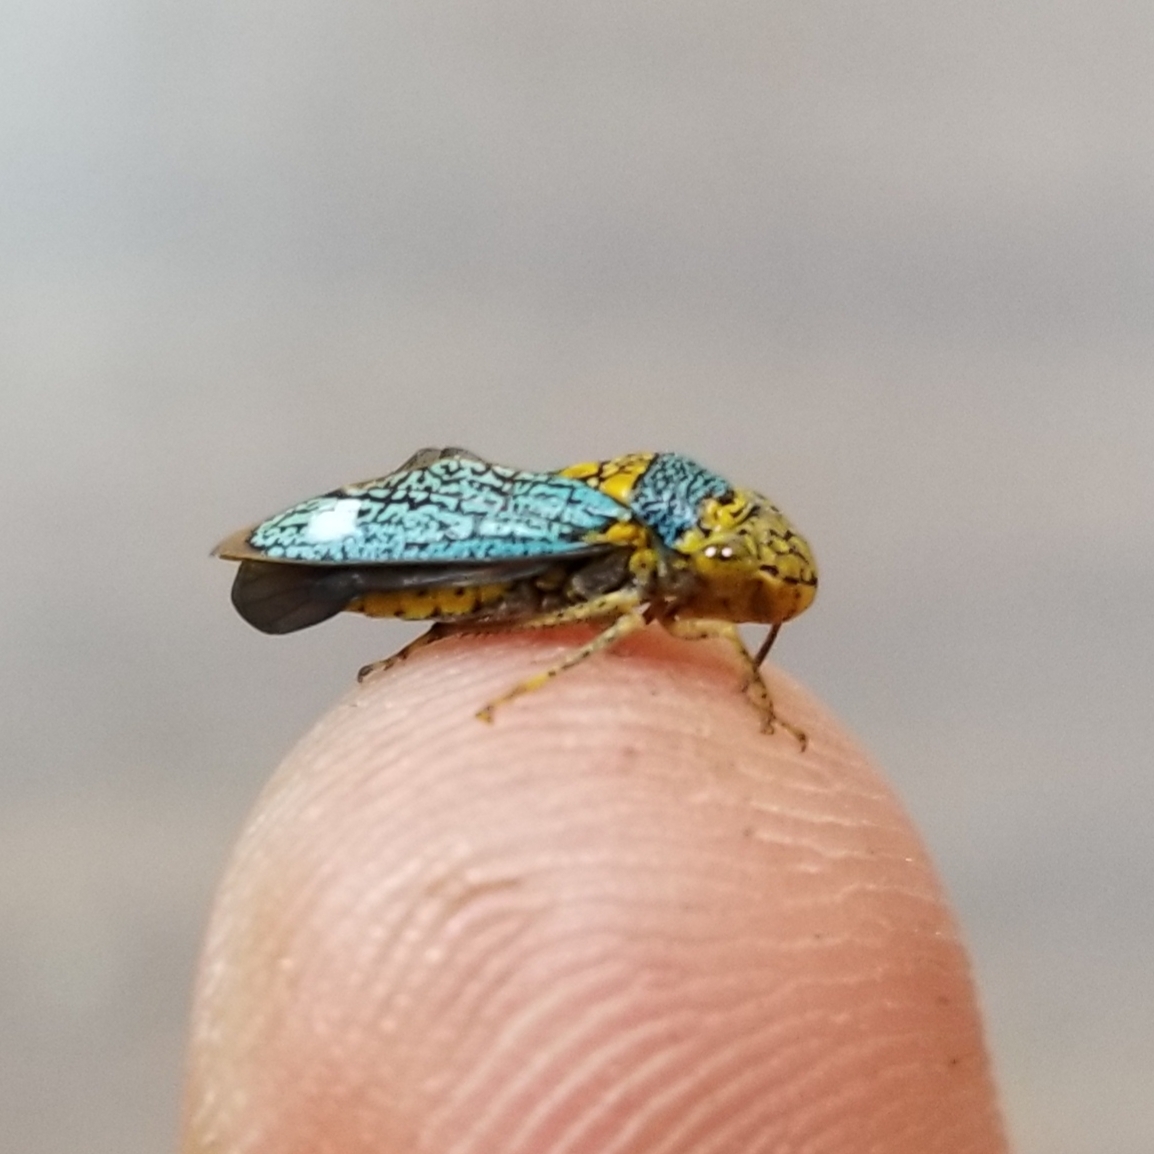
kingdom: Animalia
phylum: Arthropoda
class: Insecta
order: Hemiptera
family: Cicadellidae
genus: Oncometopia
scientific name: Oncometopia orbona
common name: Broad-headed sharpshooter
